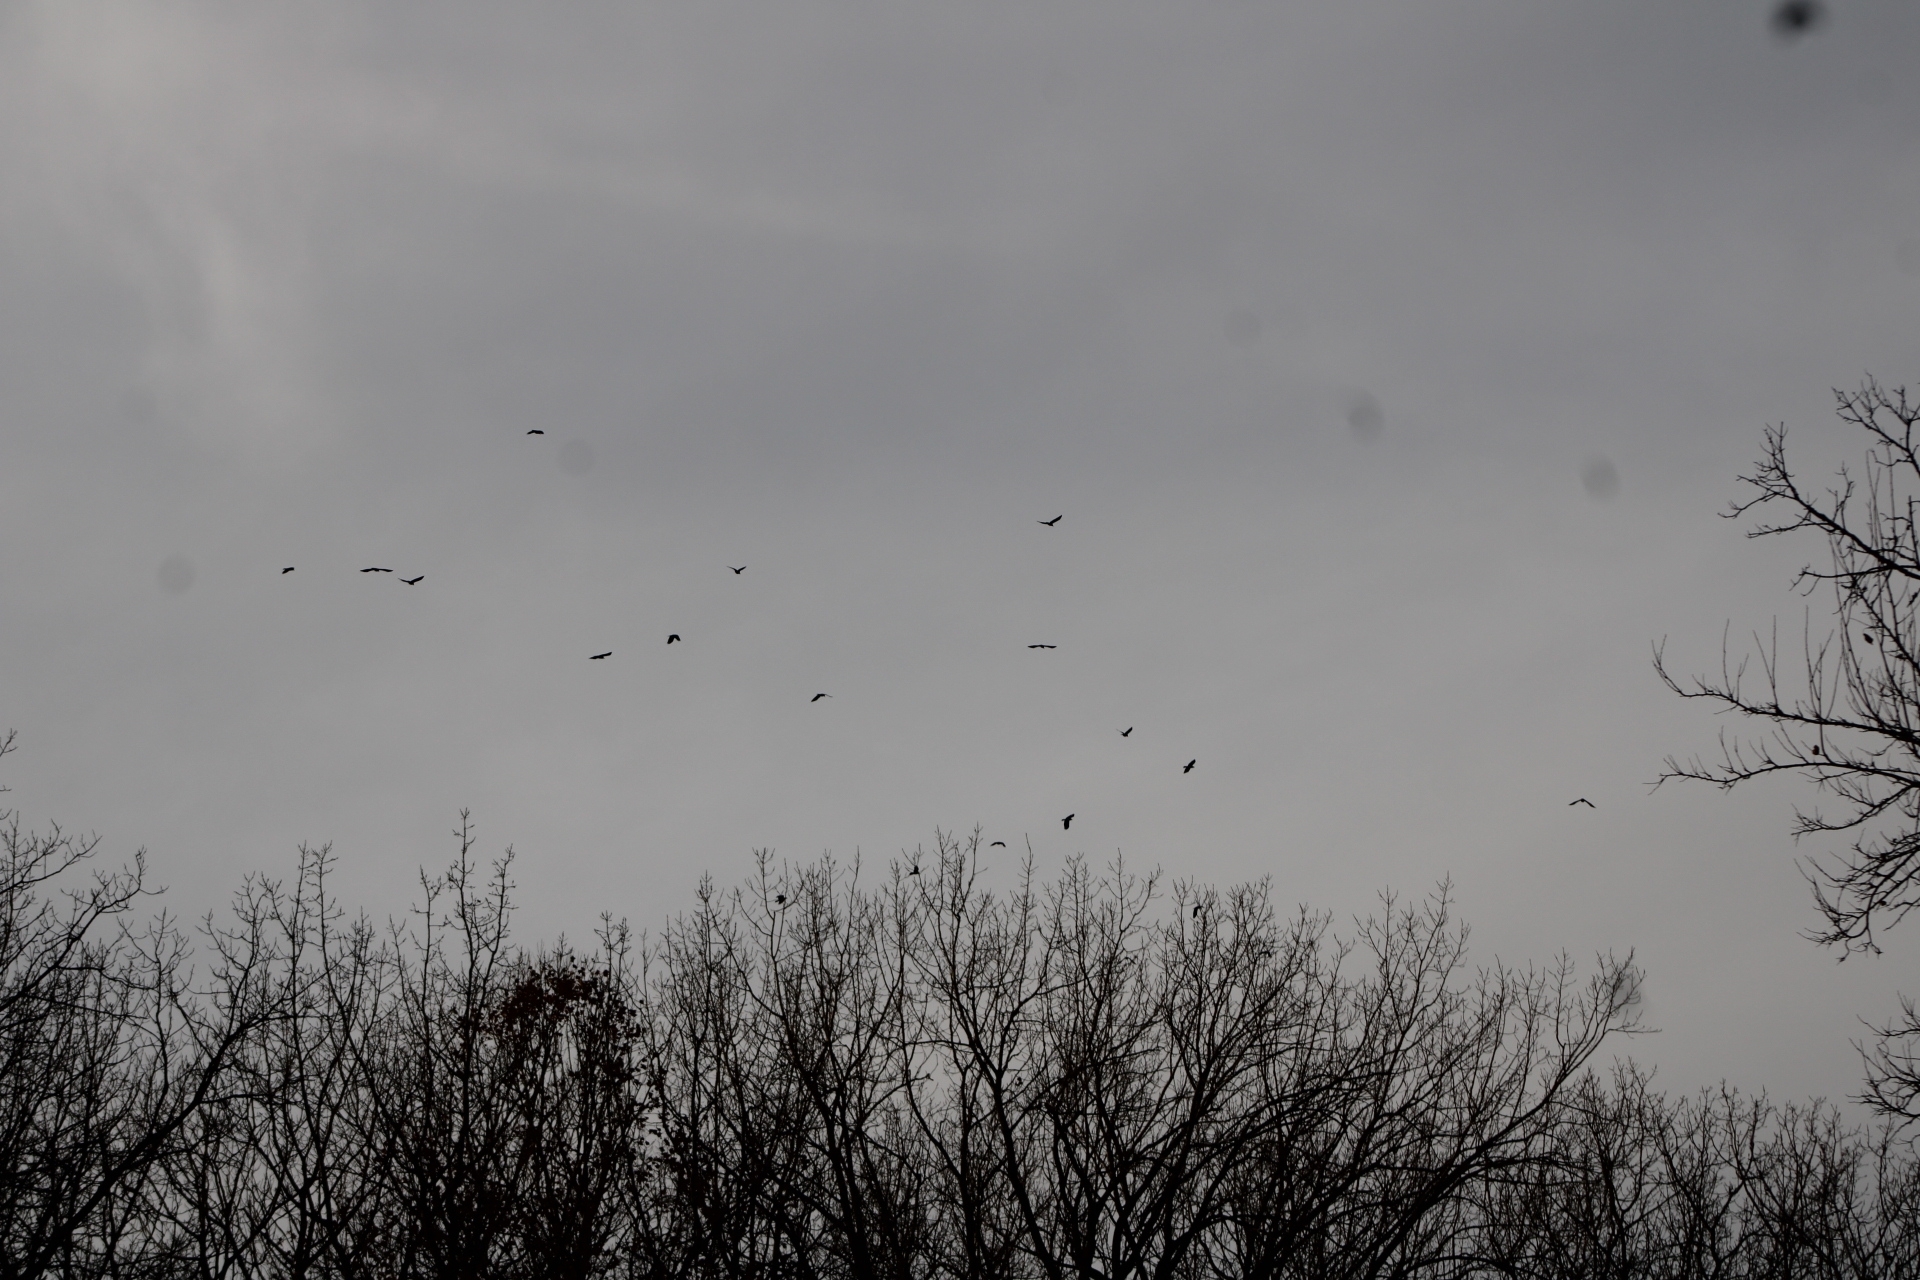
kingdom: Animalia
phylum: Chordata
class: Aves
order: Passeriformes
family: Corvidae
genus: Corvus
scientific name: Corvus brachyrhynchos
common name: American crow
